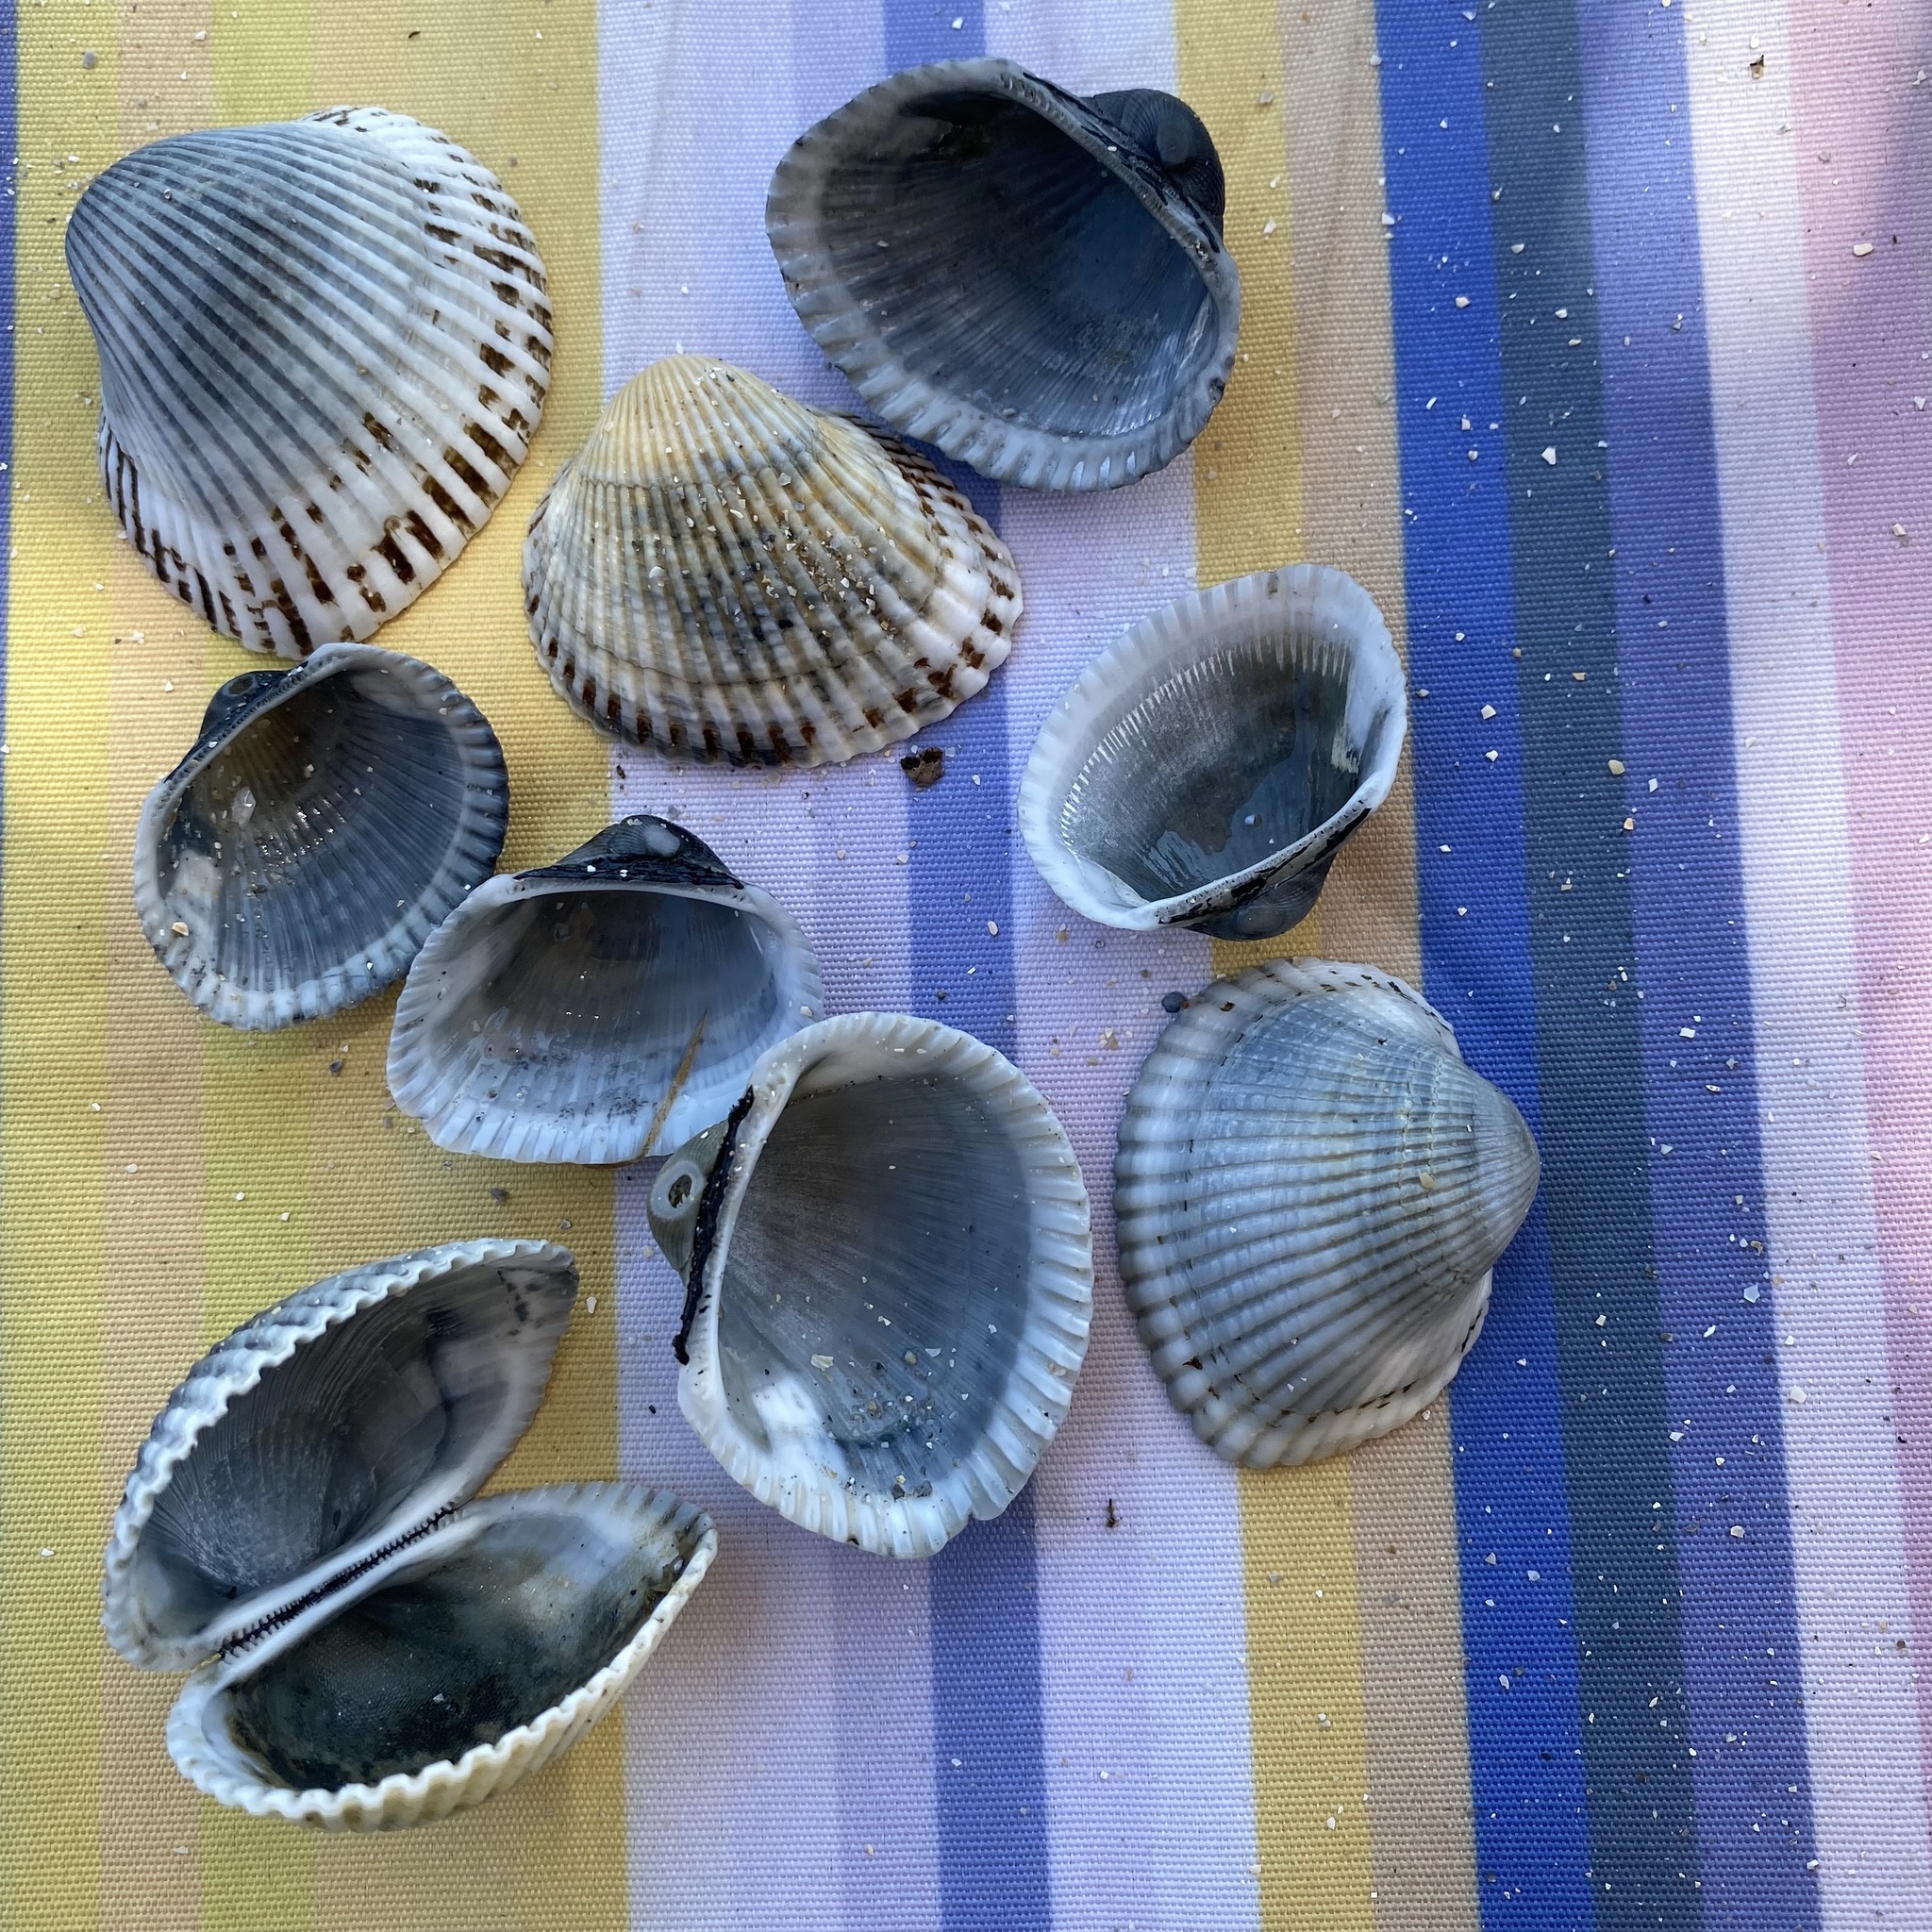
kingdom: Animalia
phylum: Mollusca
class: Bivalvia
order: Arcida
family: Arcidae
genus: Anadara
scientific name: Anadara kagoshimensis
